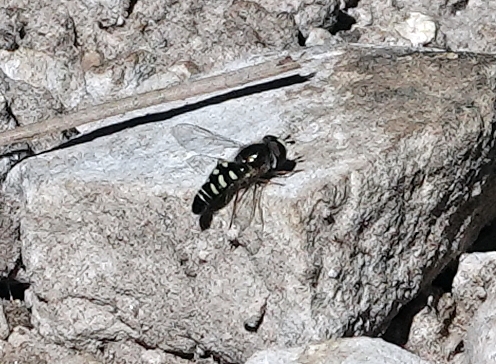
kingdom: Animalia
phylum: Arthropoda
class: Insecta
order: Diptera
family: Syrphidae
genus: Eupeodes
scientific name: Eupeodes volucris
